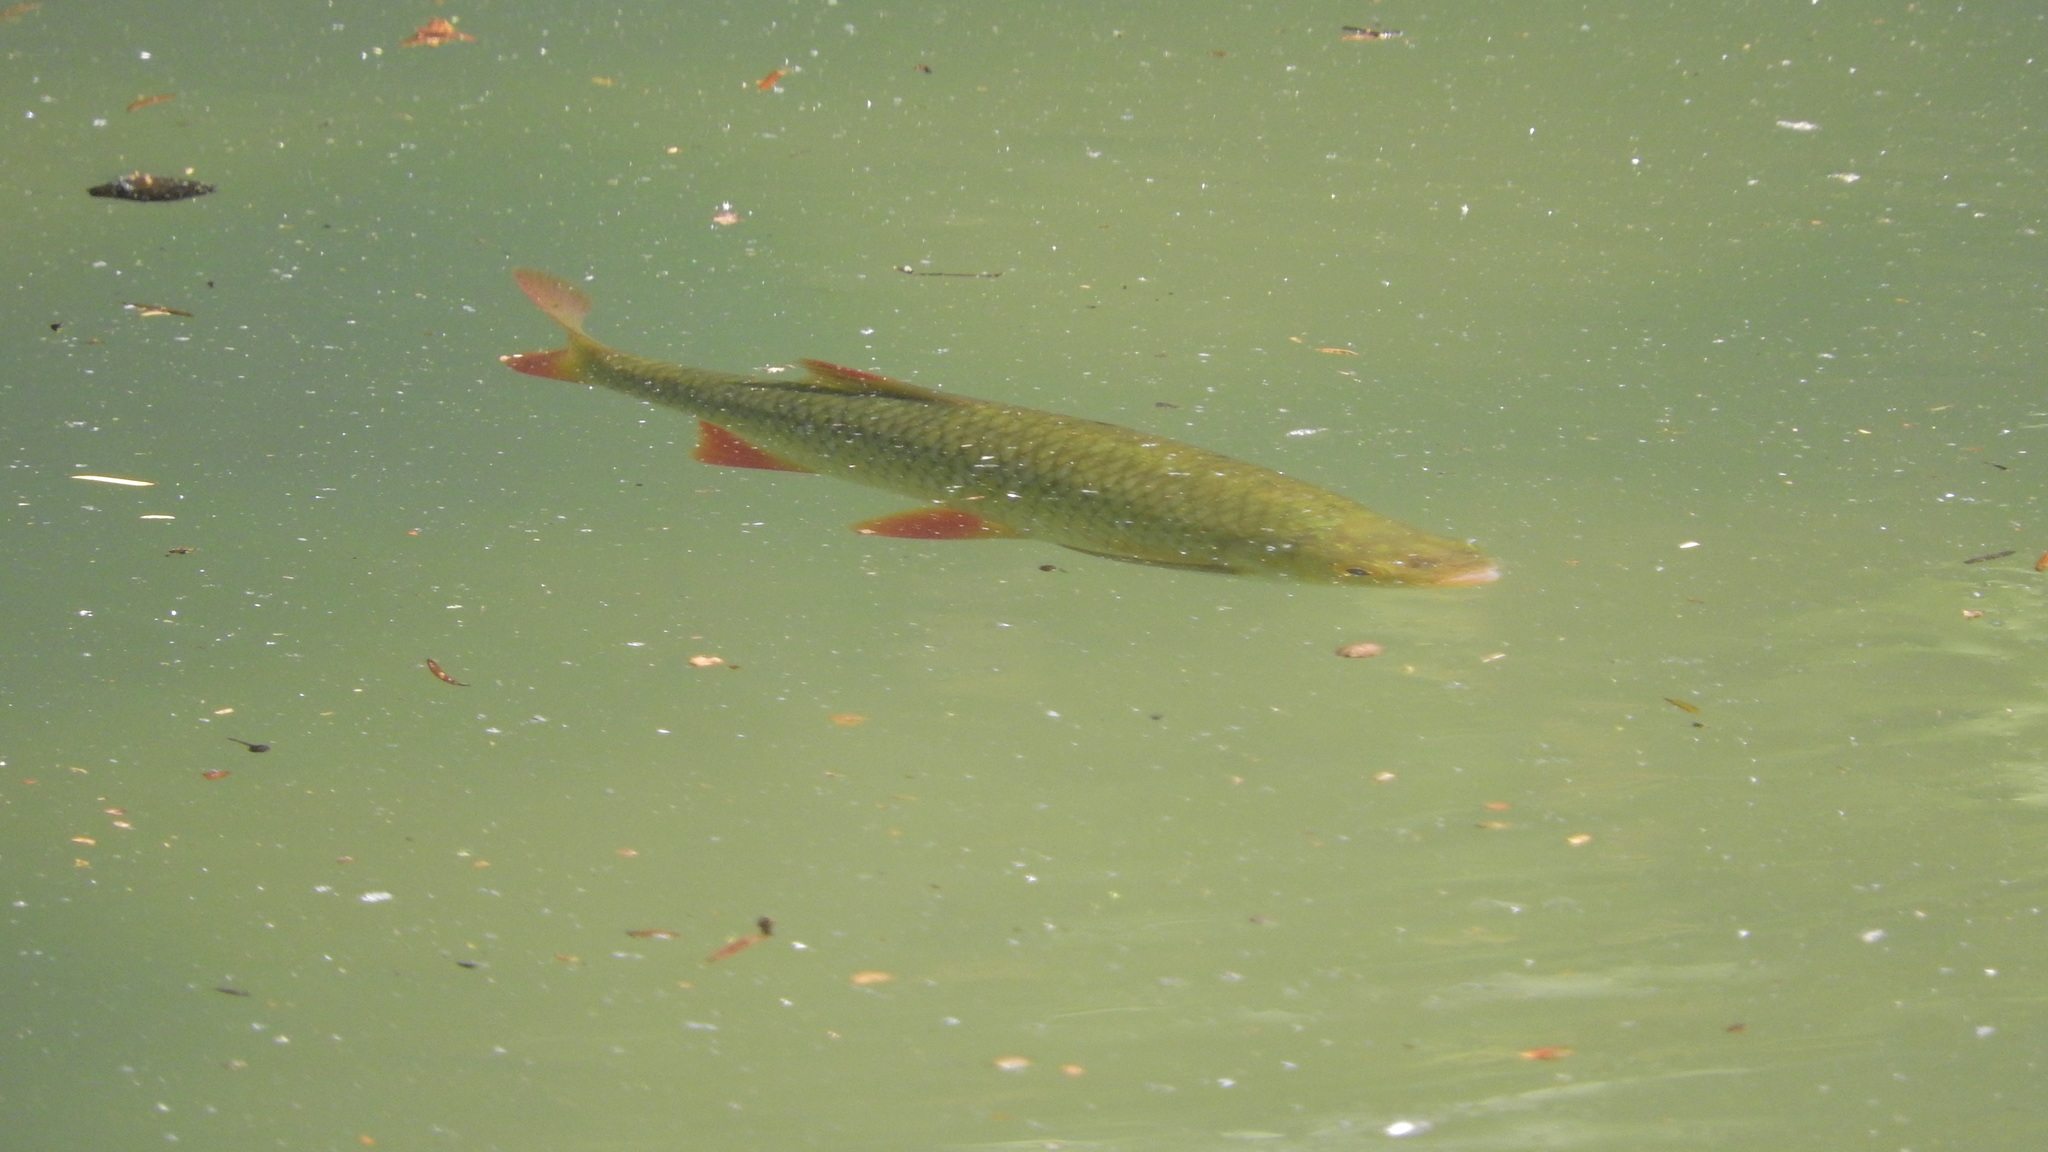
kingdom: Animalia
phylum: Chordata
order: Cypriniformes
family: Cyprinidae
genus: Scardinius
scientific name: Scardinius erythrophthalmus
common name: Rudd
